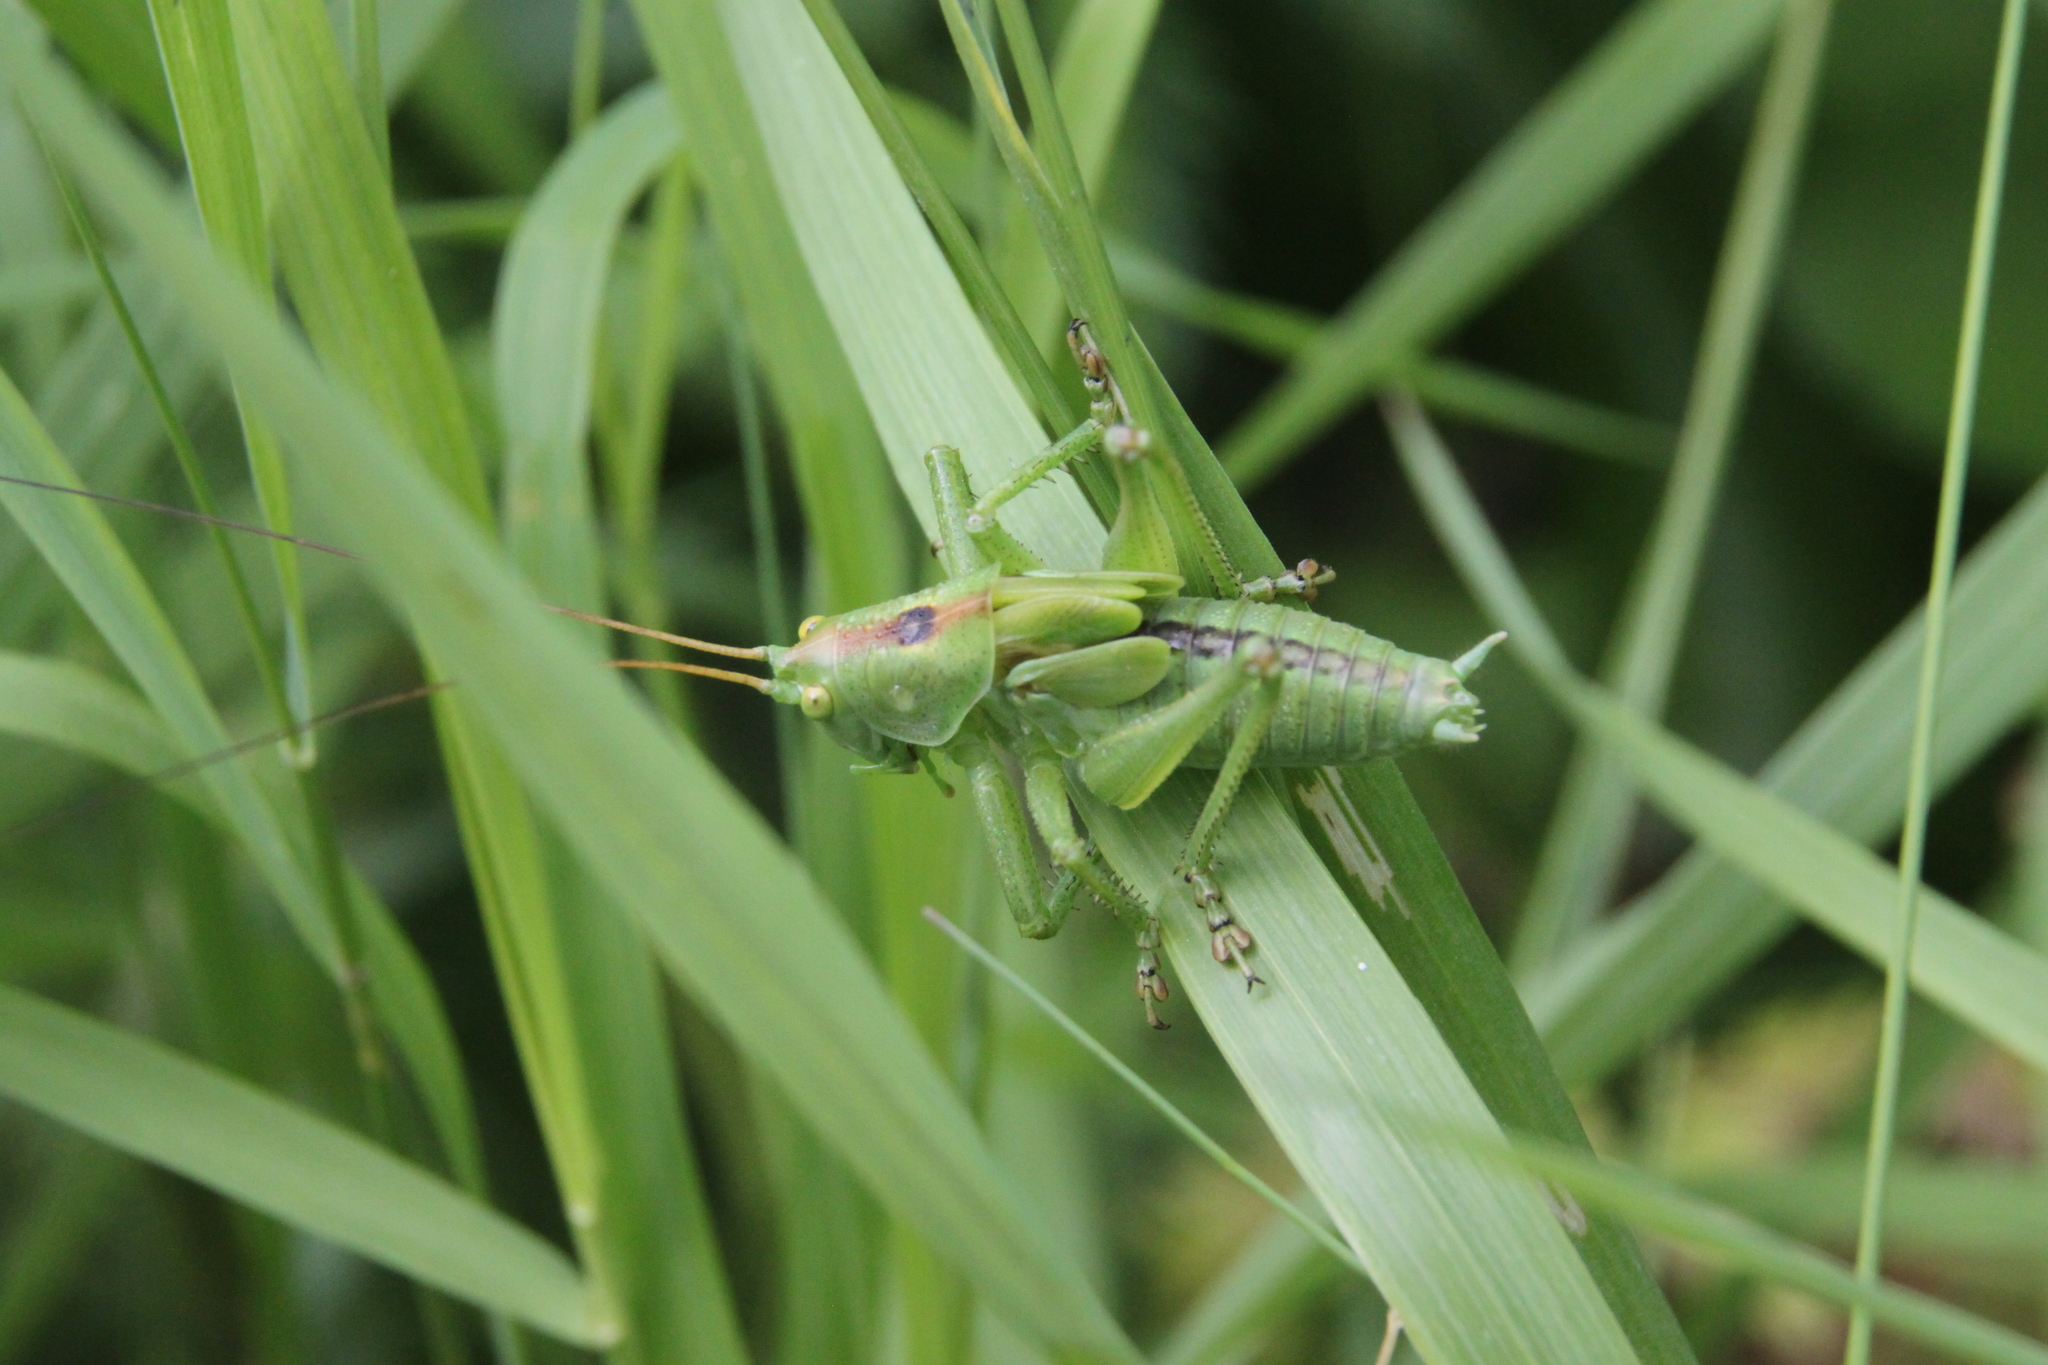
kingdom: Animalia
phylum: Arthropoda
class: Insecta
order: Orthoptera
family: Tettigoniidae
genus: Tettigonia
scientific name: Tettigonia cantans
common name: Upland green bush-cricket
